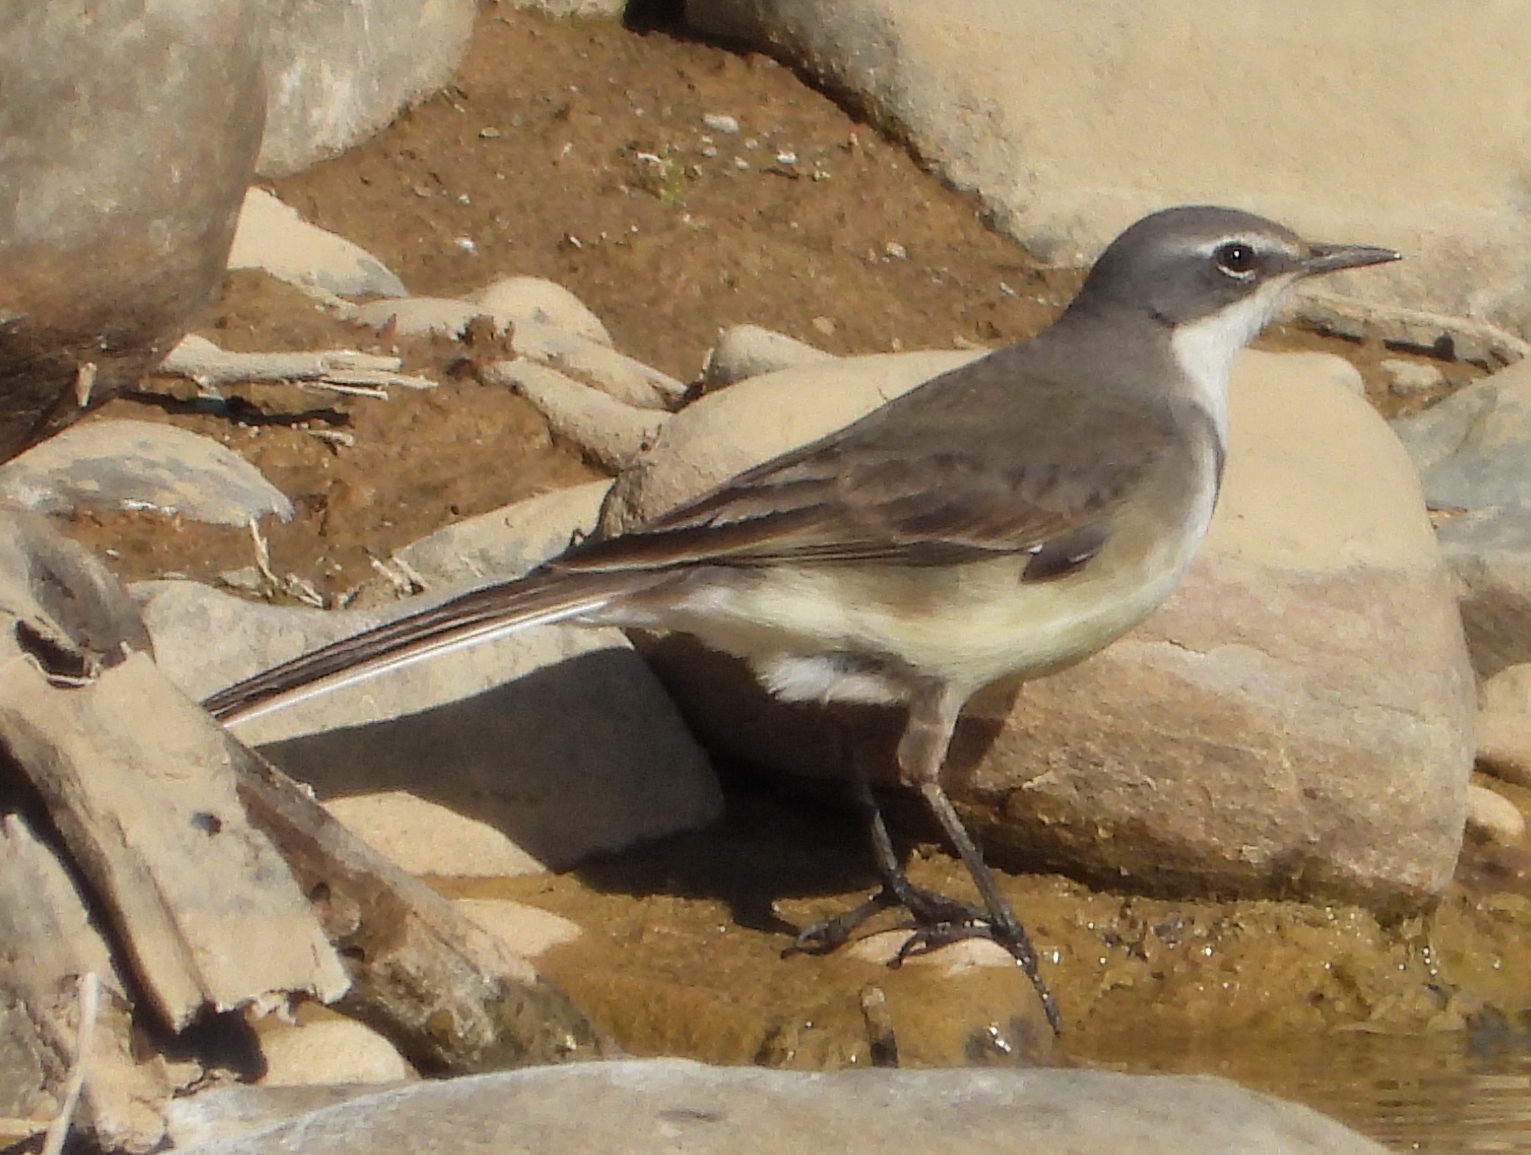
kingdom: Animalia
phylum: Chordata
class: Aves
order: Passeriformes
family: Motacillidae
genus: Motacilla
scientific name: Motacilla capensis
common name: Cape wagtail
